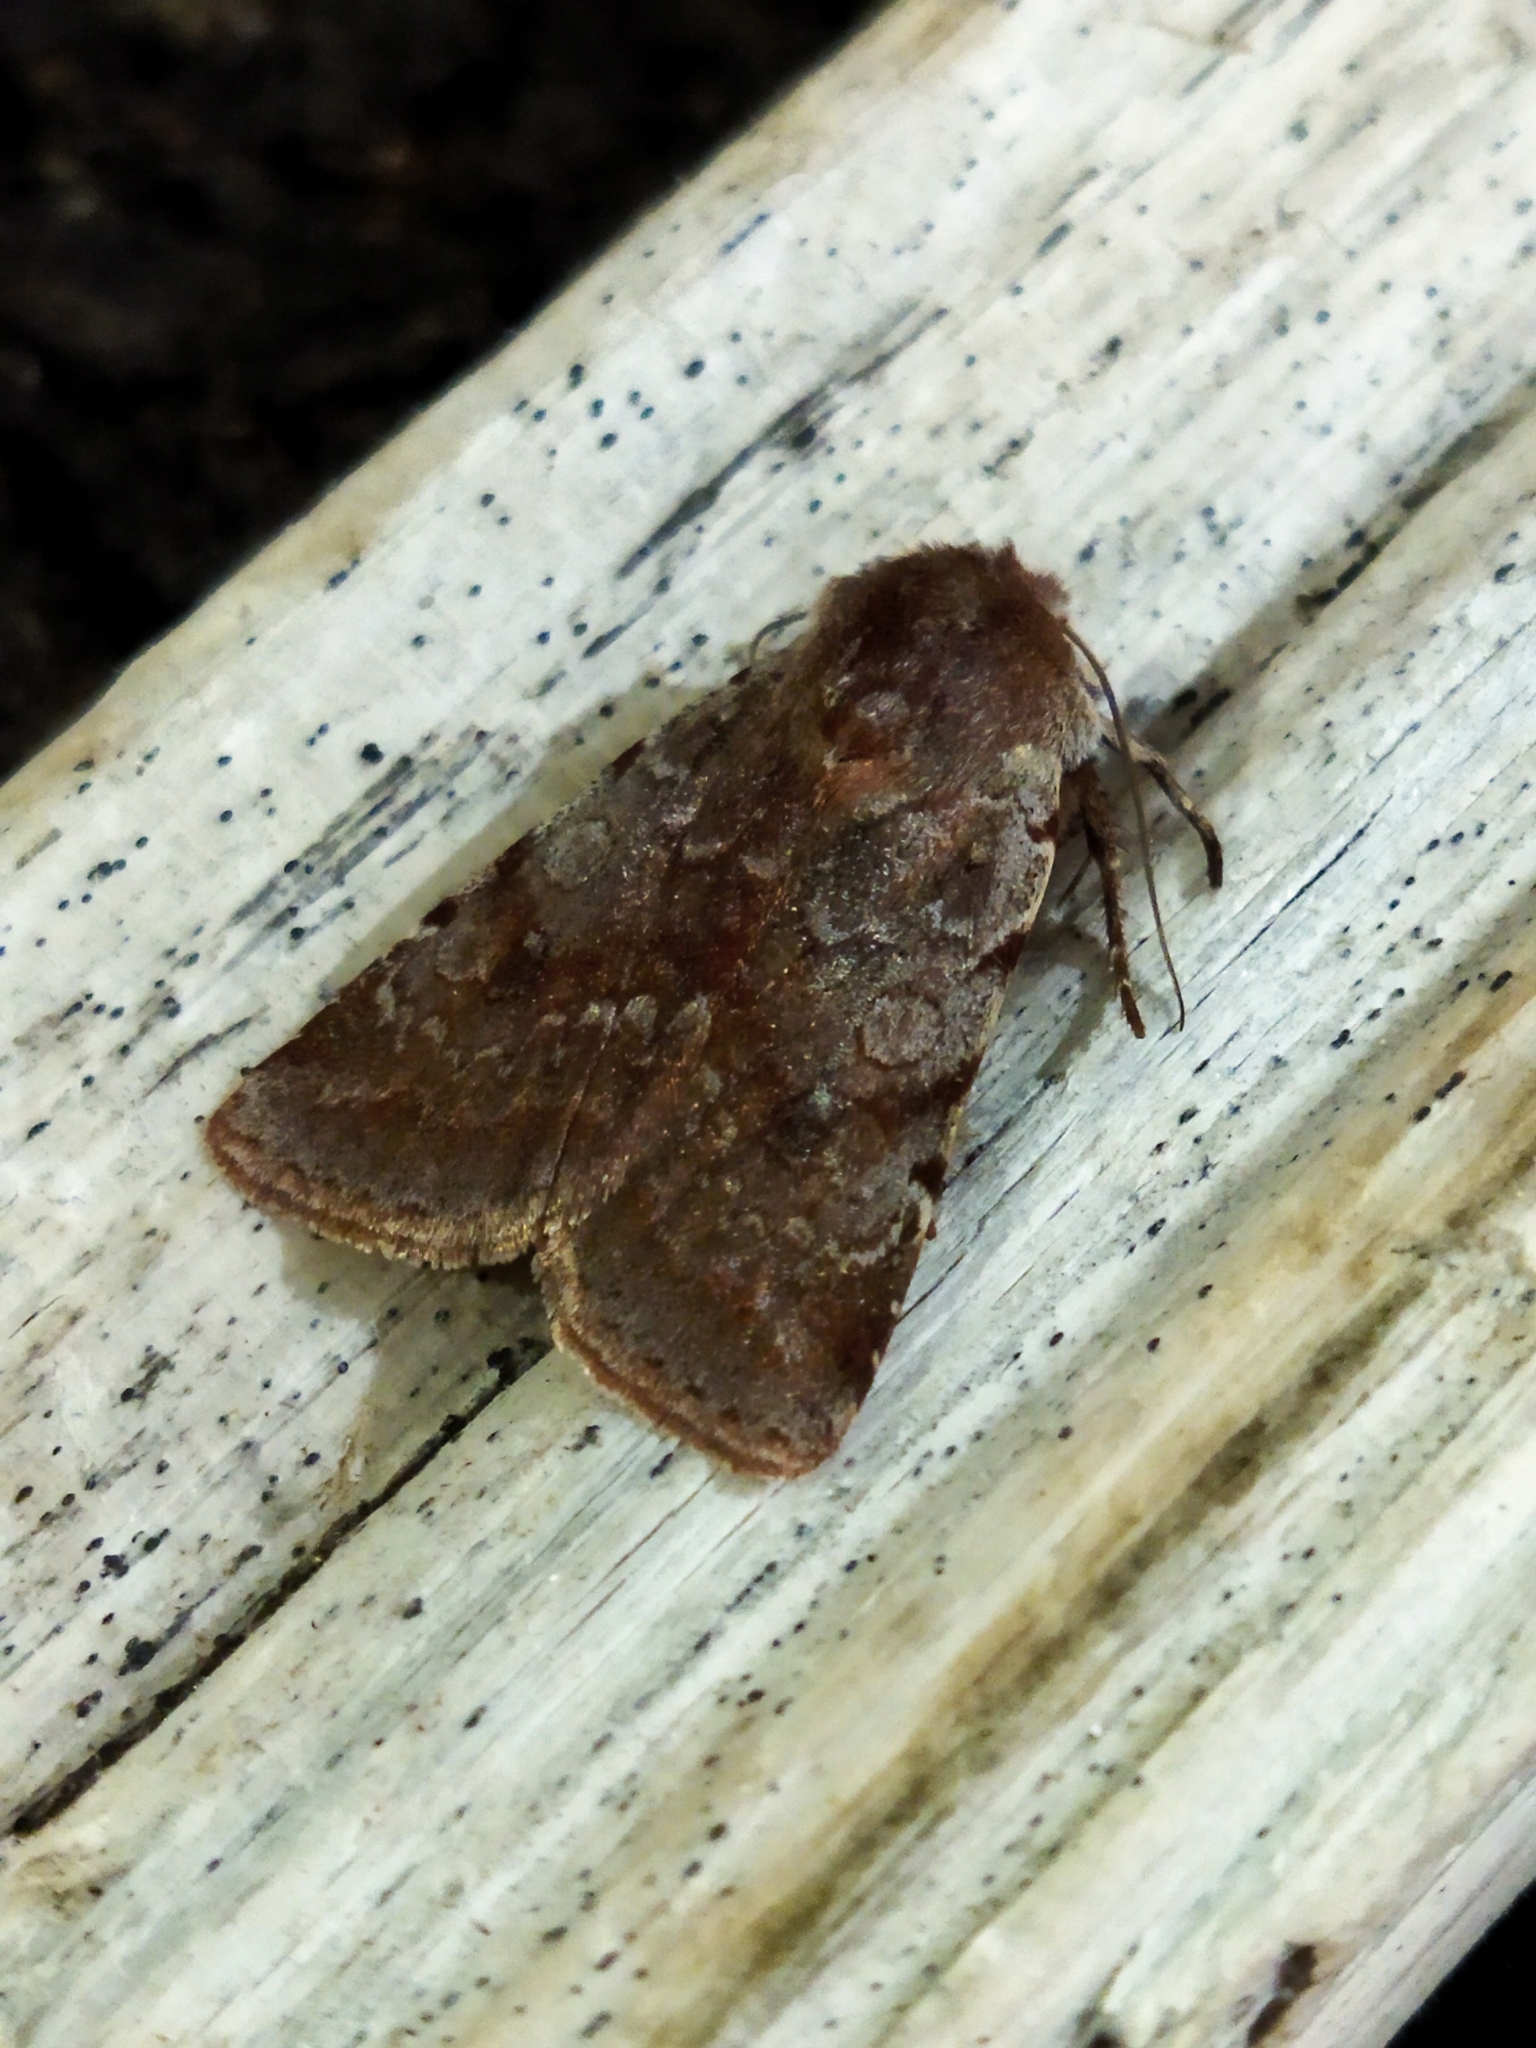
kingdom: Animalia
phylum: Arthropoda
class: Insecta
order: Lepidoptera
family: Noctuidae
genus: Cerastis
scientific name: Cerastis rubricosa
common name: Red chestnut
